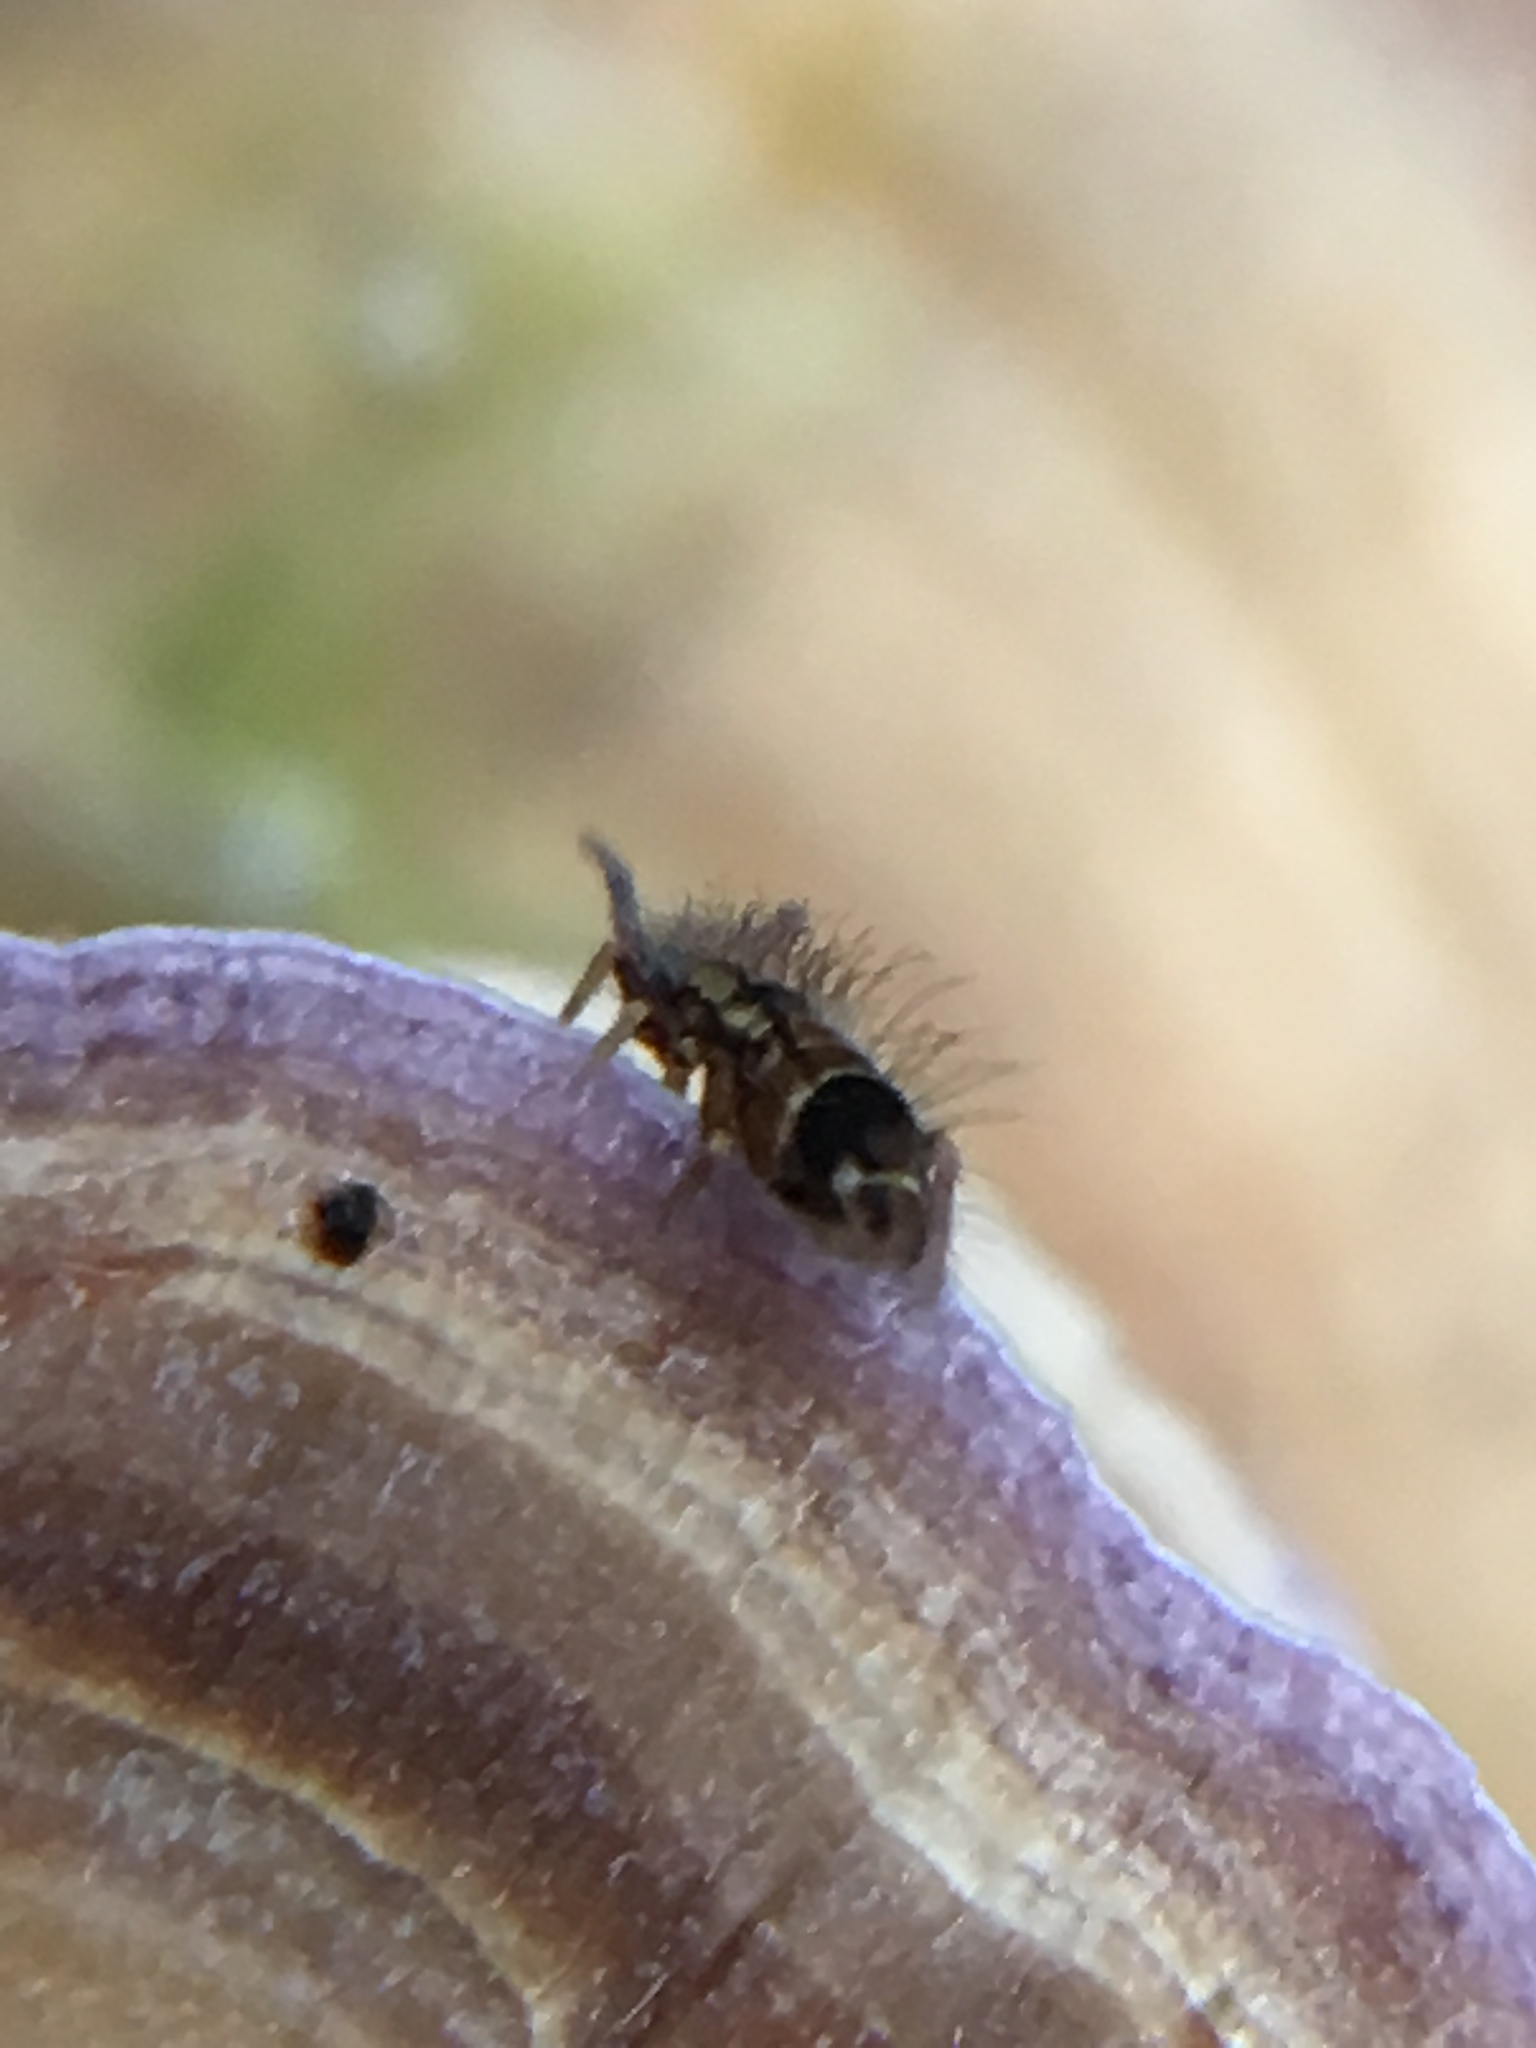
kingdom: Animalia
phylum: Arthropoda
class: Collembola
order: Entomobryomorpha
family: Entomobryidae
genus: Entomobrya
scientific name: Entomobrya nivalis
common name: Cosmopolitan springtail
